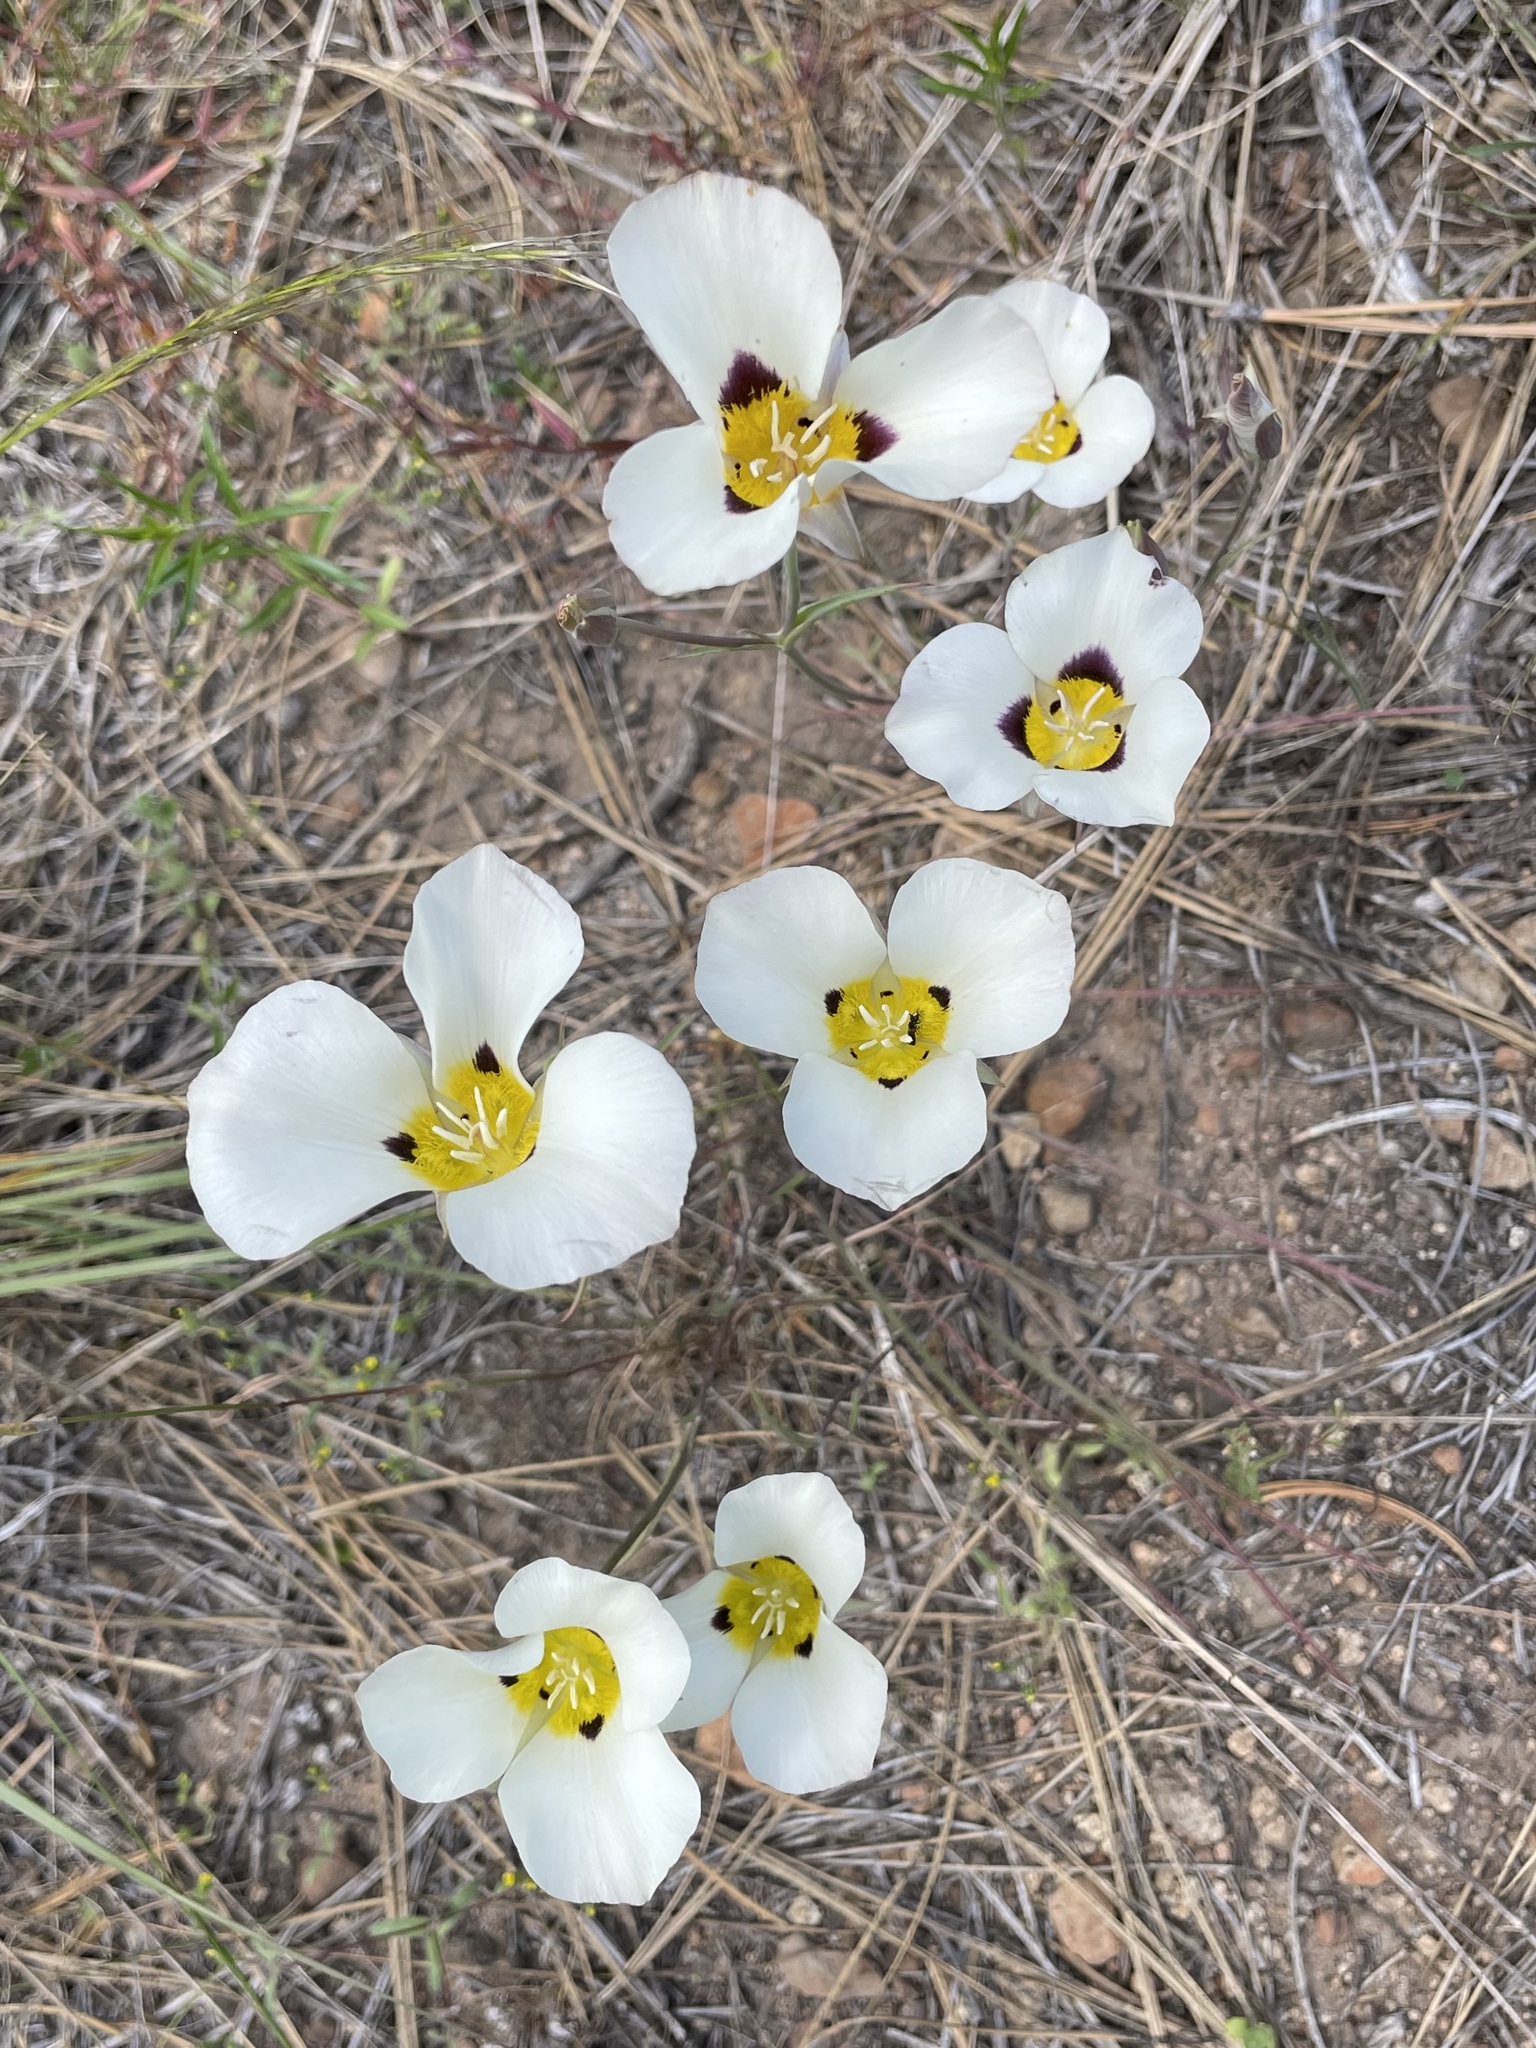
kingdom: Plantae
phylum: Tracheophyta
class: Liliopsida
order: Liliales
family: Liliaceae
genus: Calochortus
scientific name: Calochortus leichtlinii
